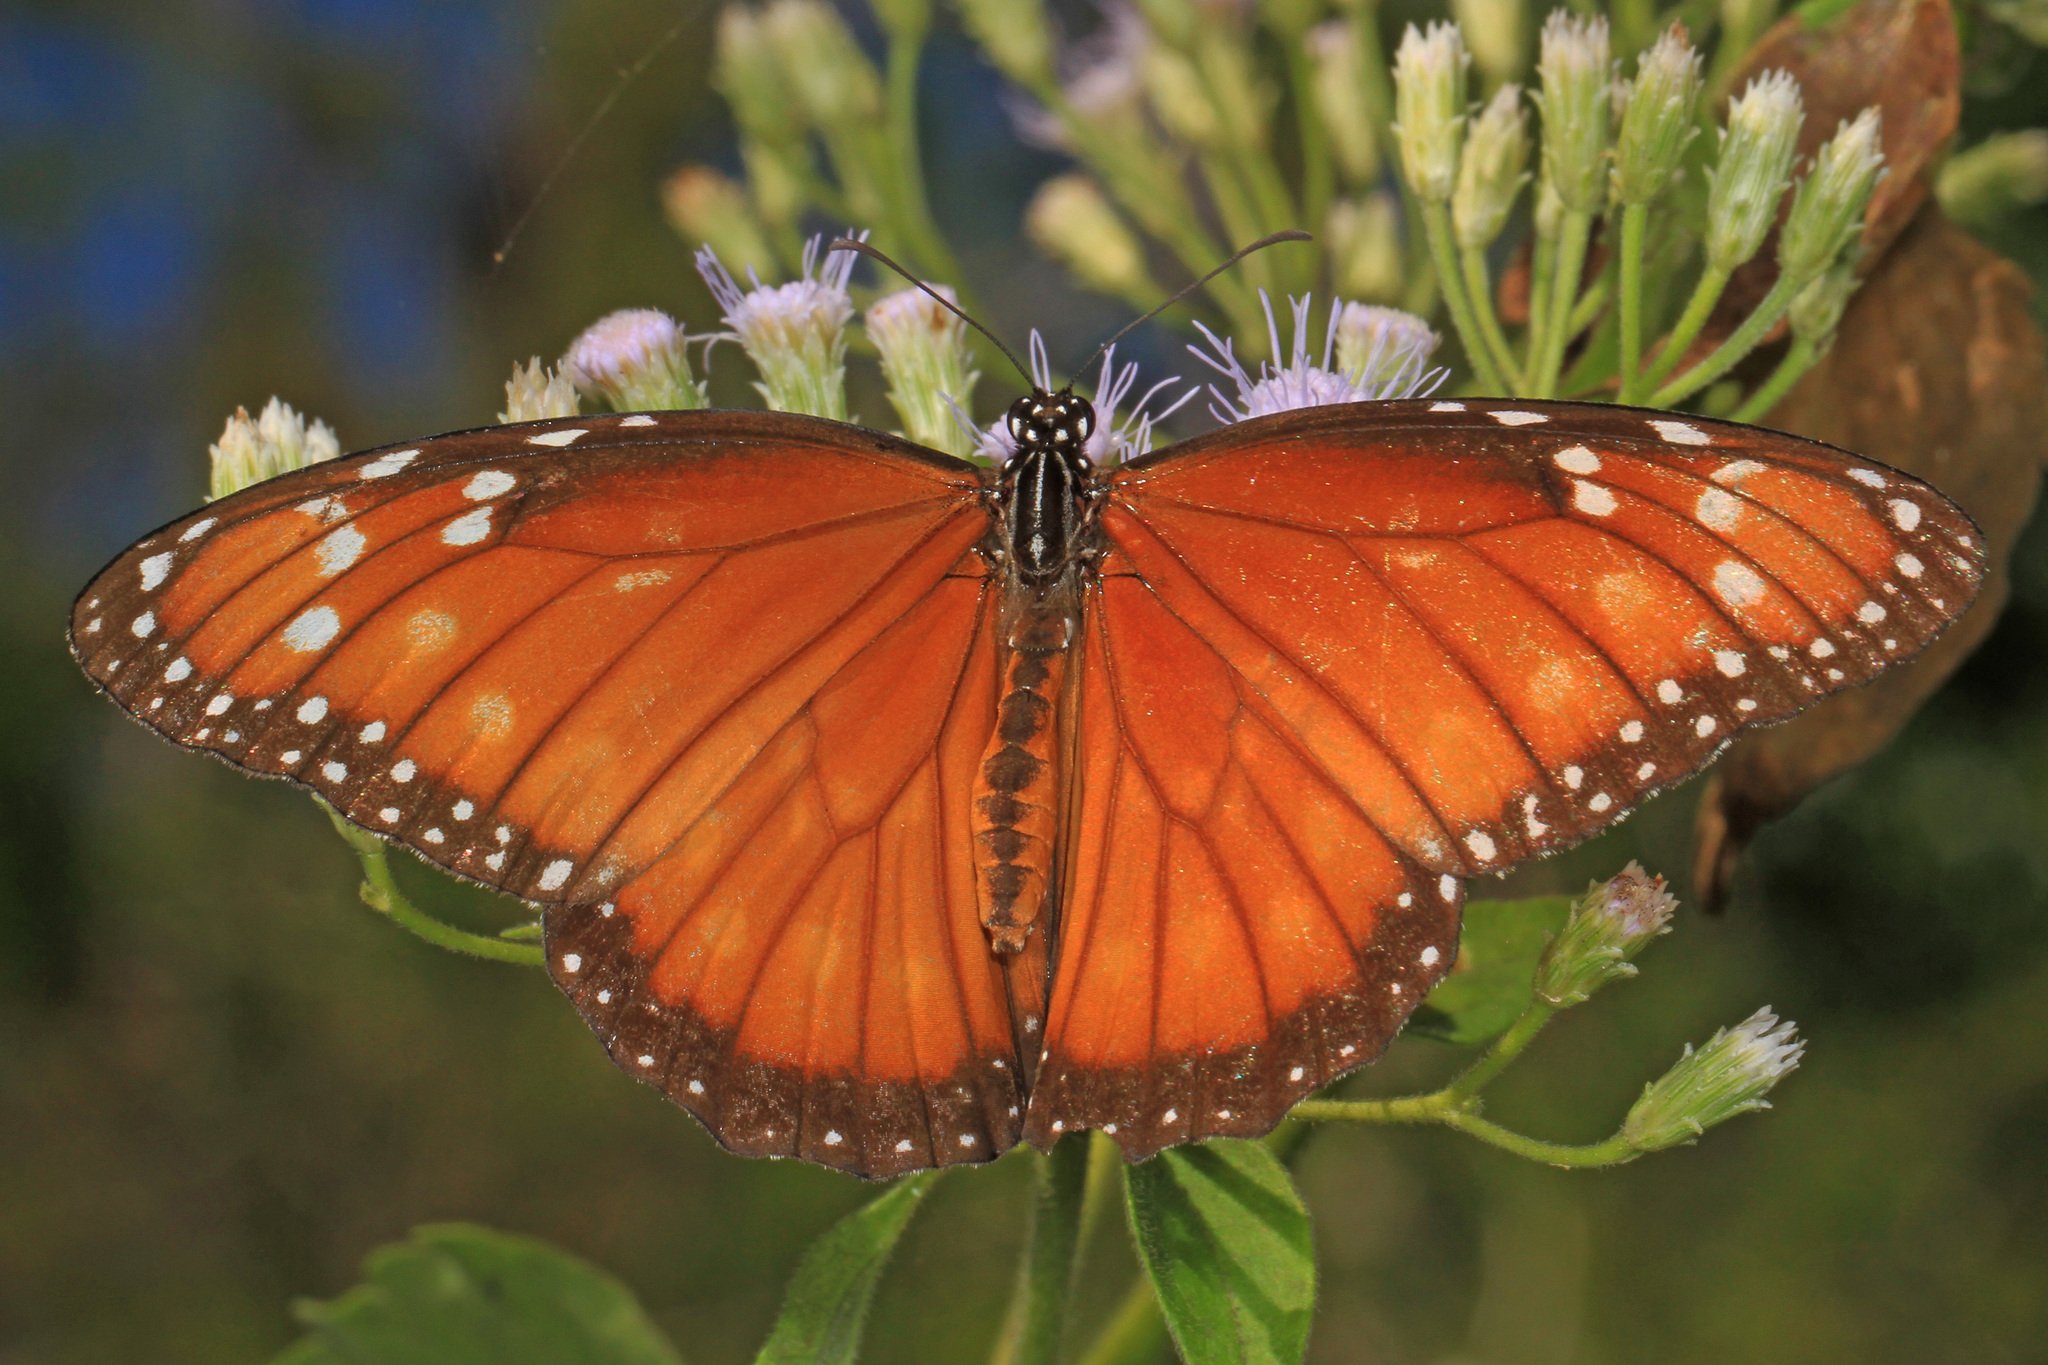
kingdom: Animalia
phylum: Arthropoda
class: Insecta
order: Lepidoptera
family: Nymphalidae
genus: Danaus
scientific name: Danaus eresimus
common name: Soldier
